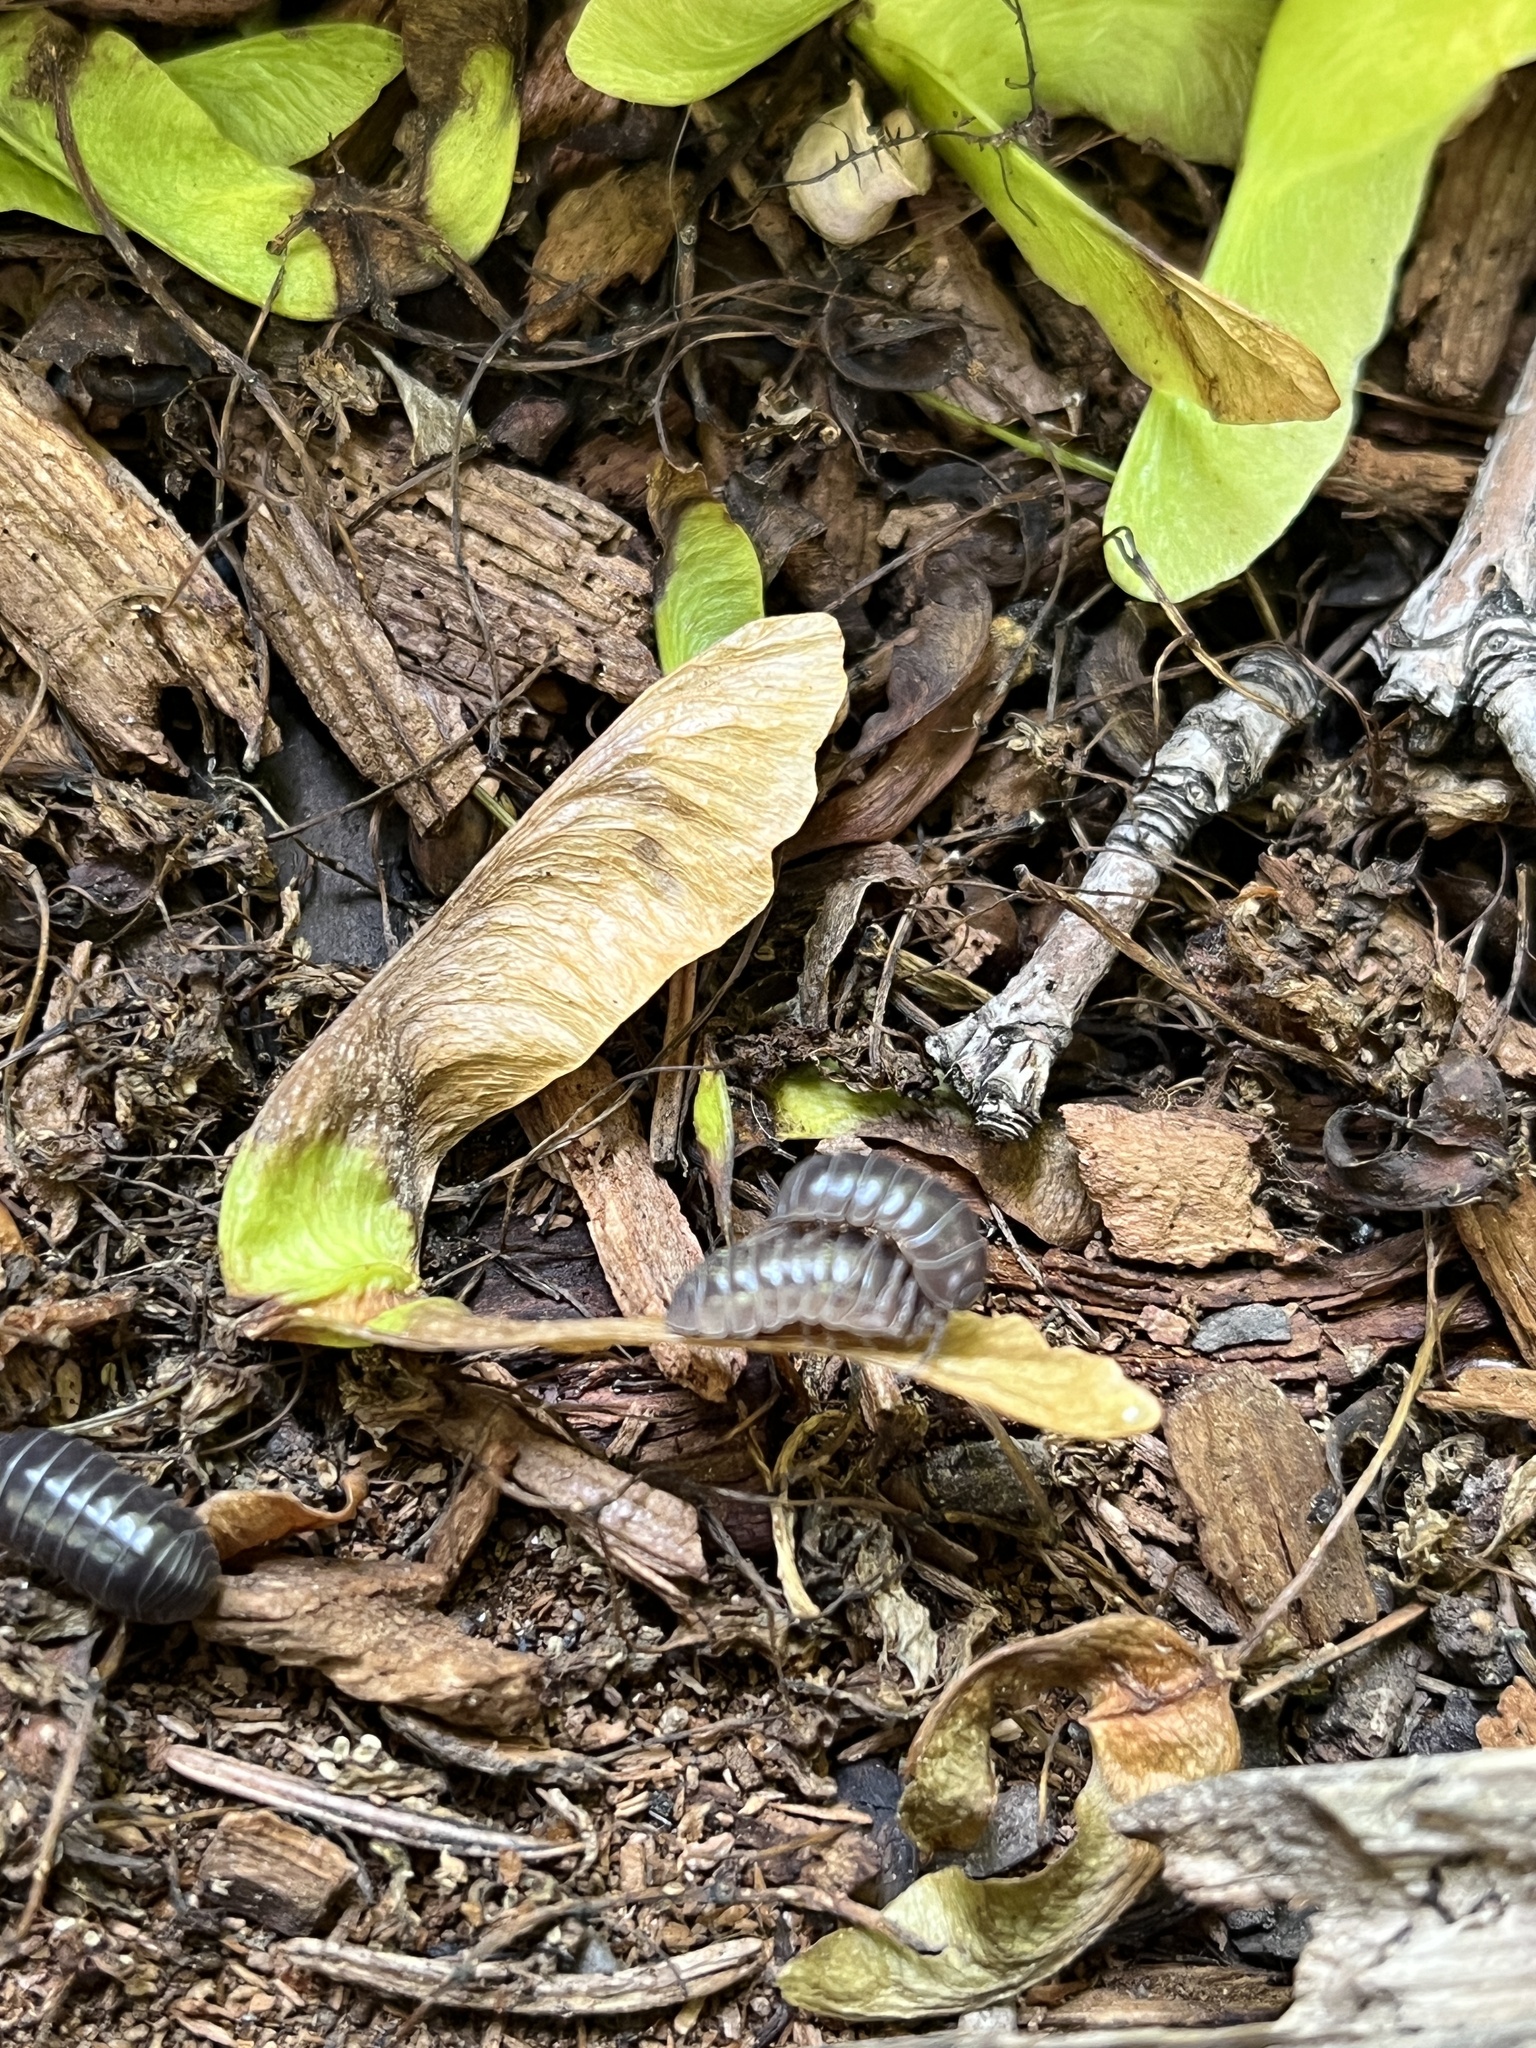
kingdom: Animalia
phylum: Arthropoda
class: Malacostraca
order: Isopoda
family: Armadillidiidae
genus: Armadillidium
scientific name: Armadillidium vulgare
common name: Common pill woodlouse
